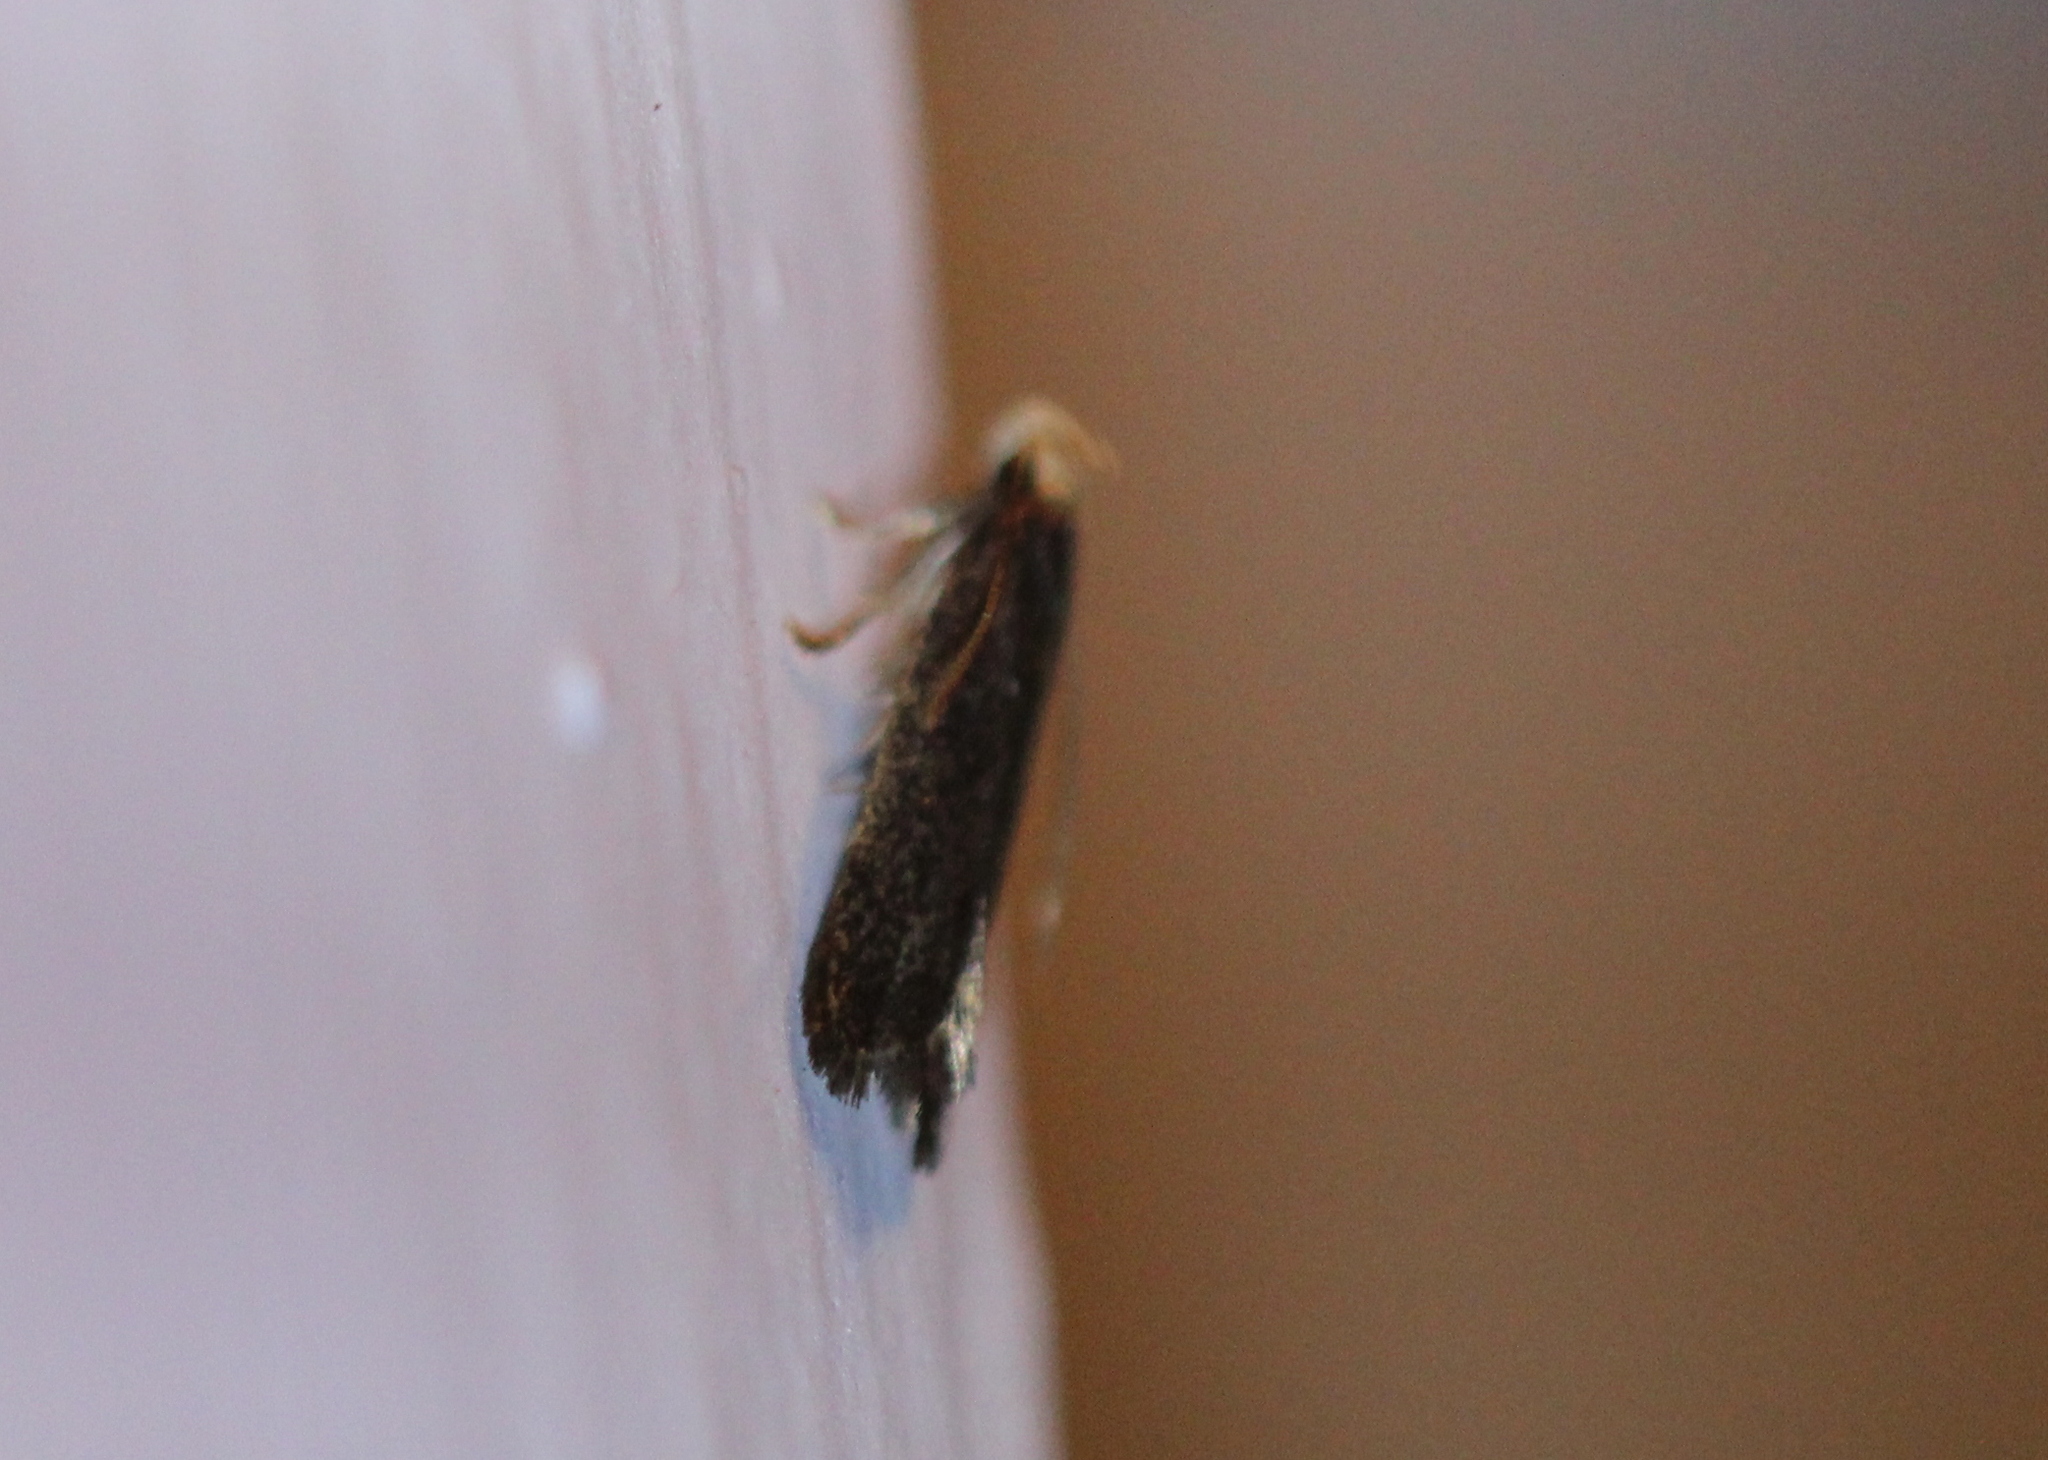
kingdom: Animalia
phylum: Arthropoda
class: Insecta
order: Lepidoptera
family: Autostichidae
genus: Glyphidocera
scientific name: Glyphidocera lithodoxa
